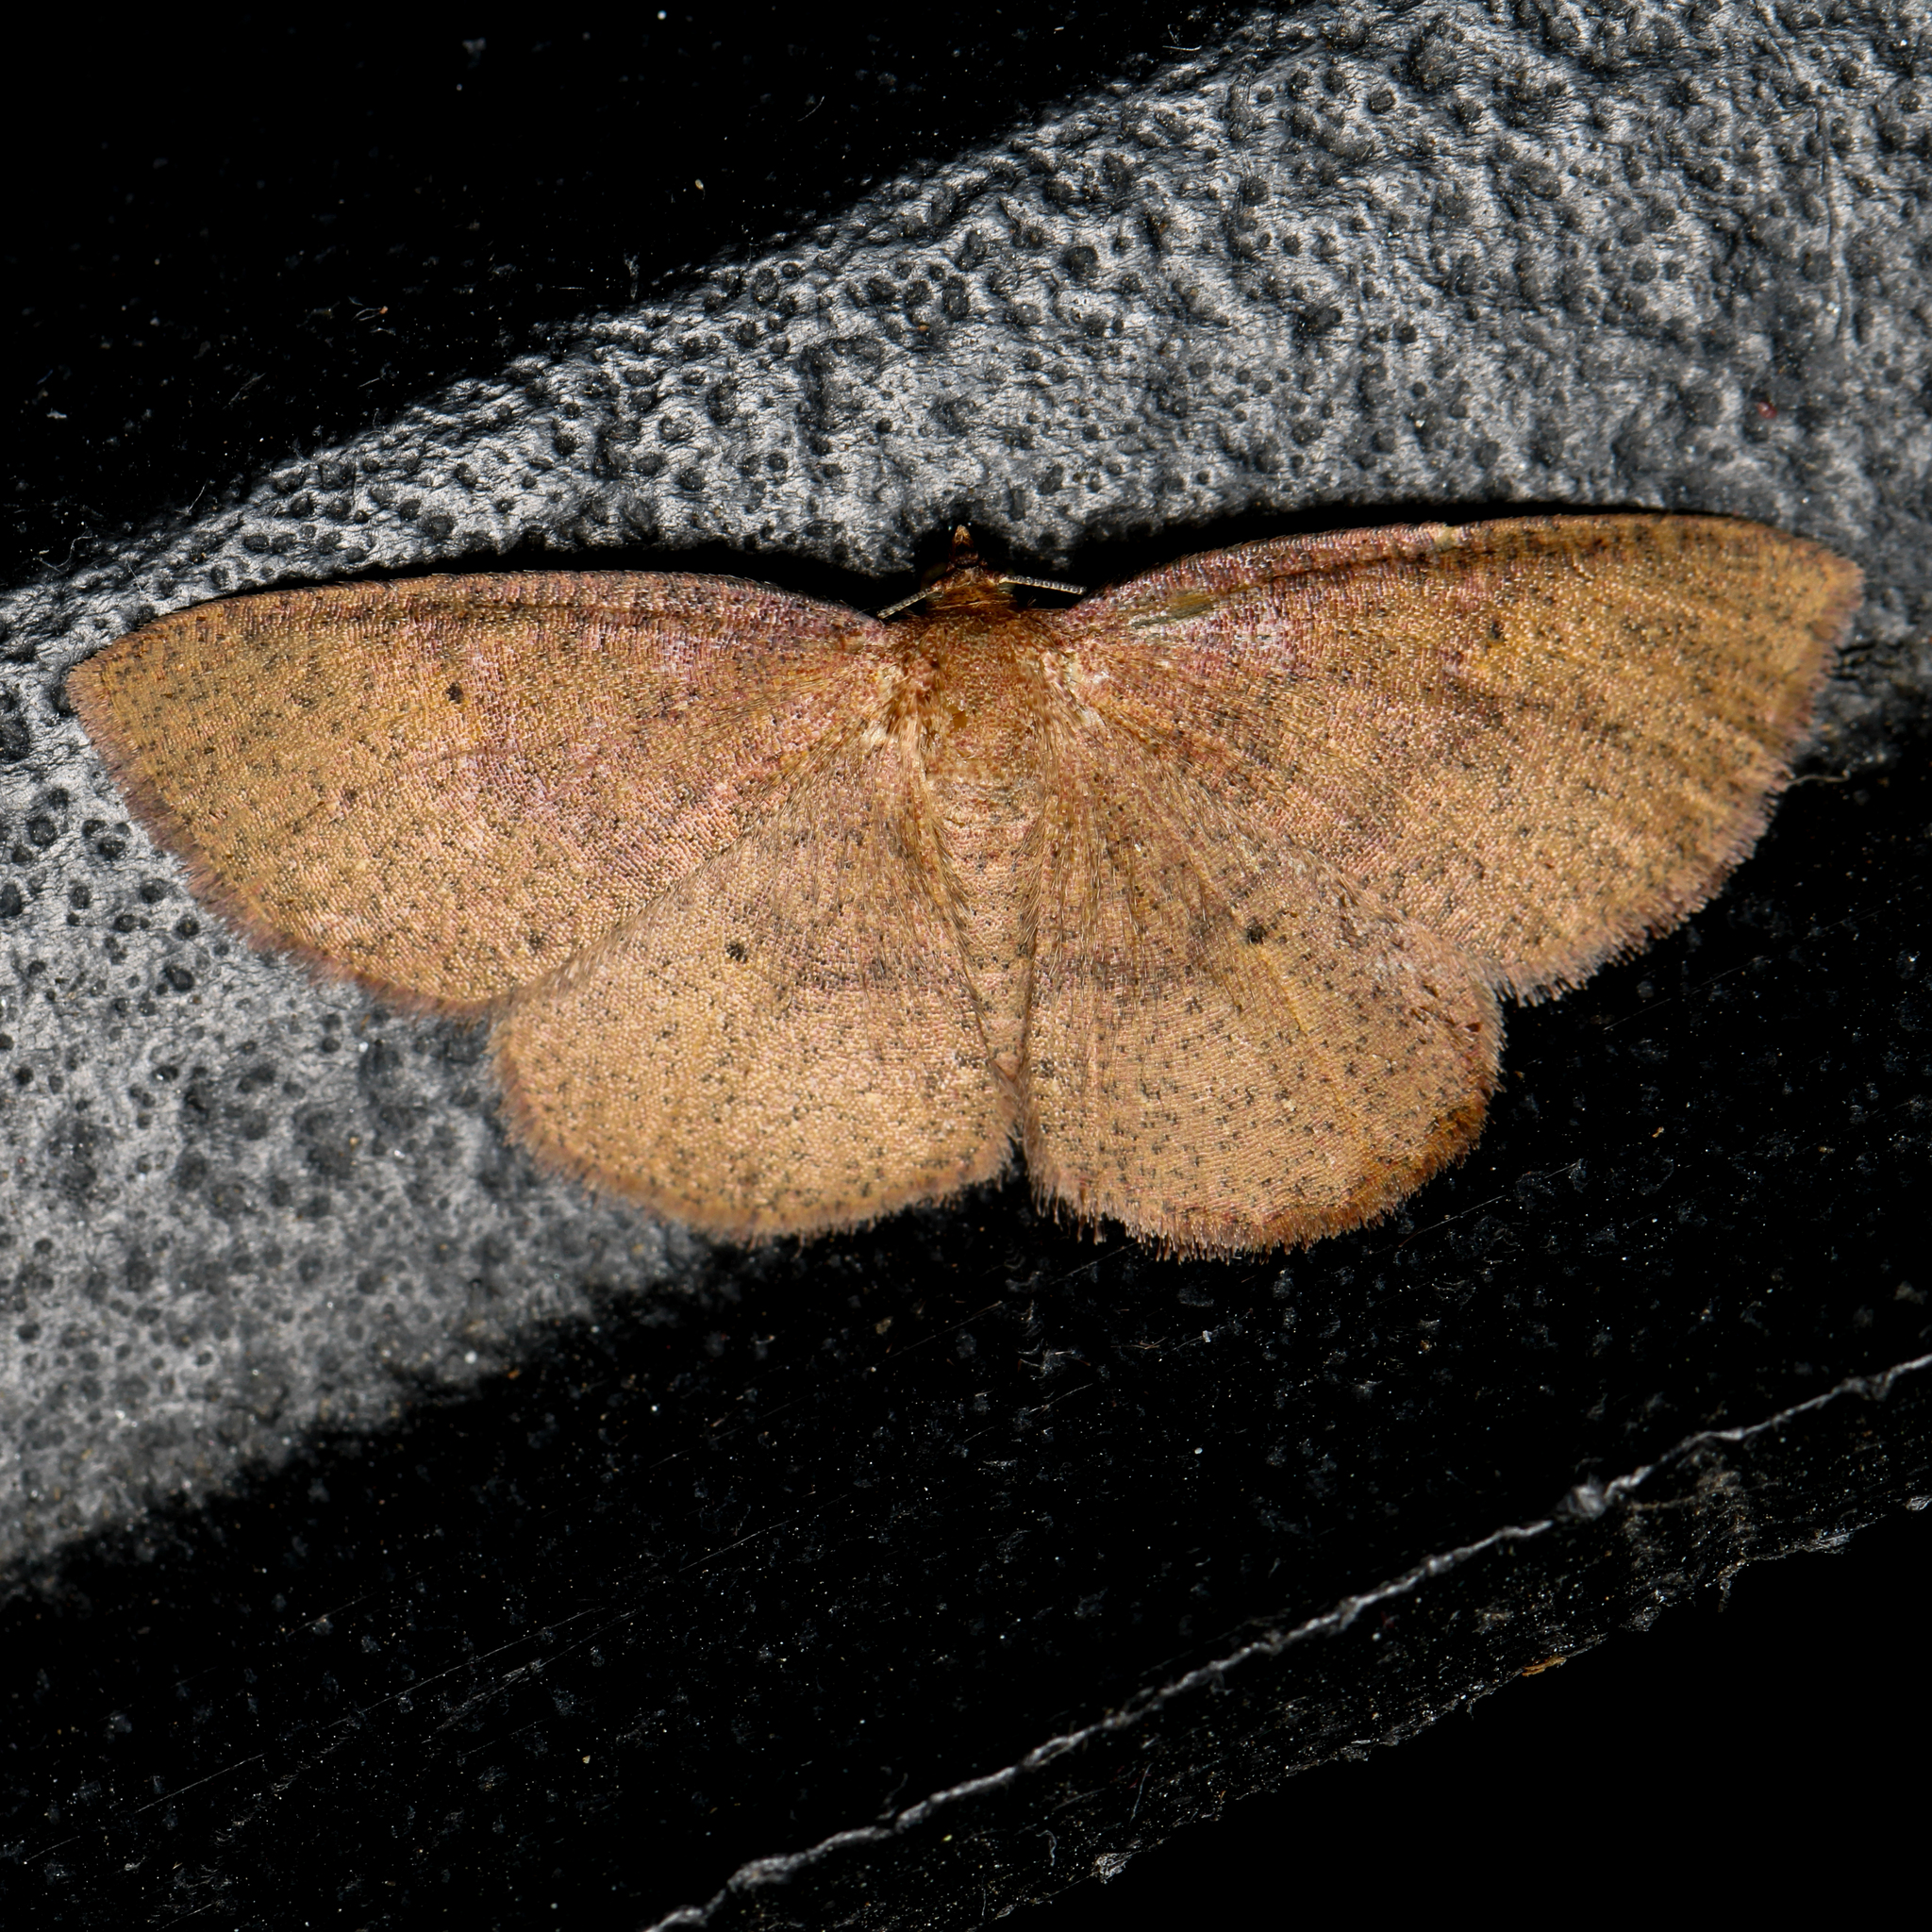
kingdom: Animalia
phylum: Arthropoda
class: Insecta
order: Lepidoptera
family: Geometridae
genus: Ilexia
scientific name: Ilexia intractata
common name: Black-dotted ruddy moth
